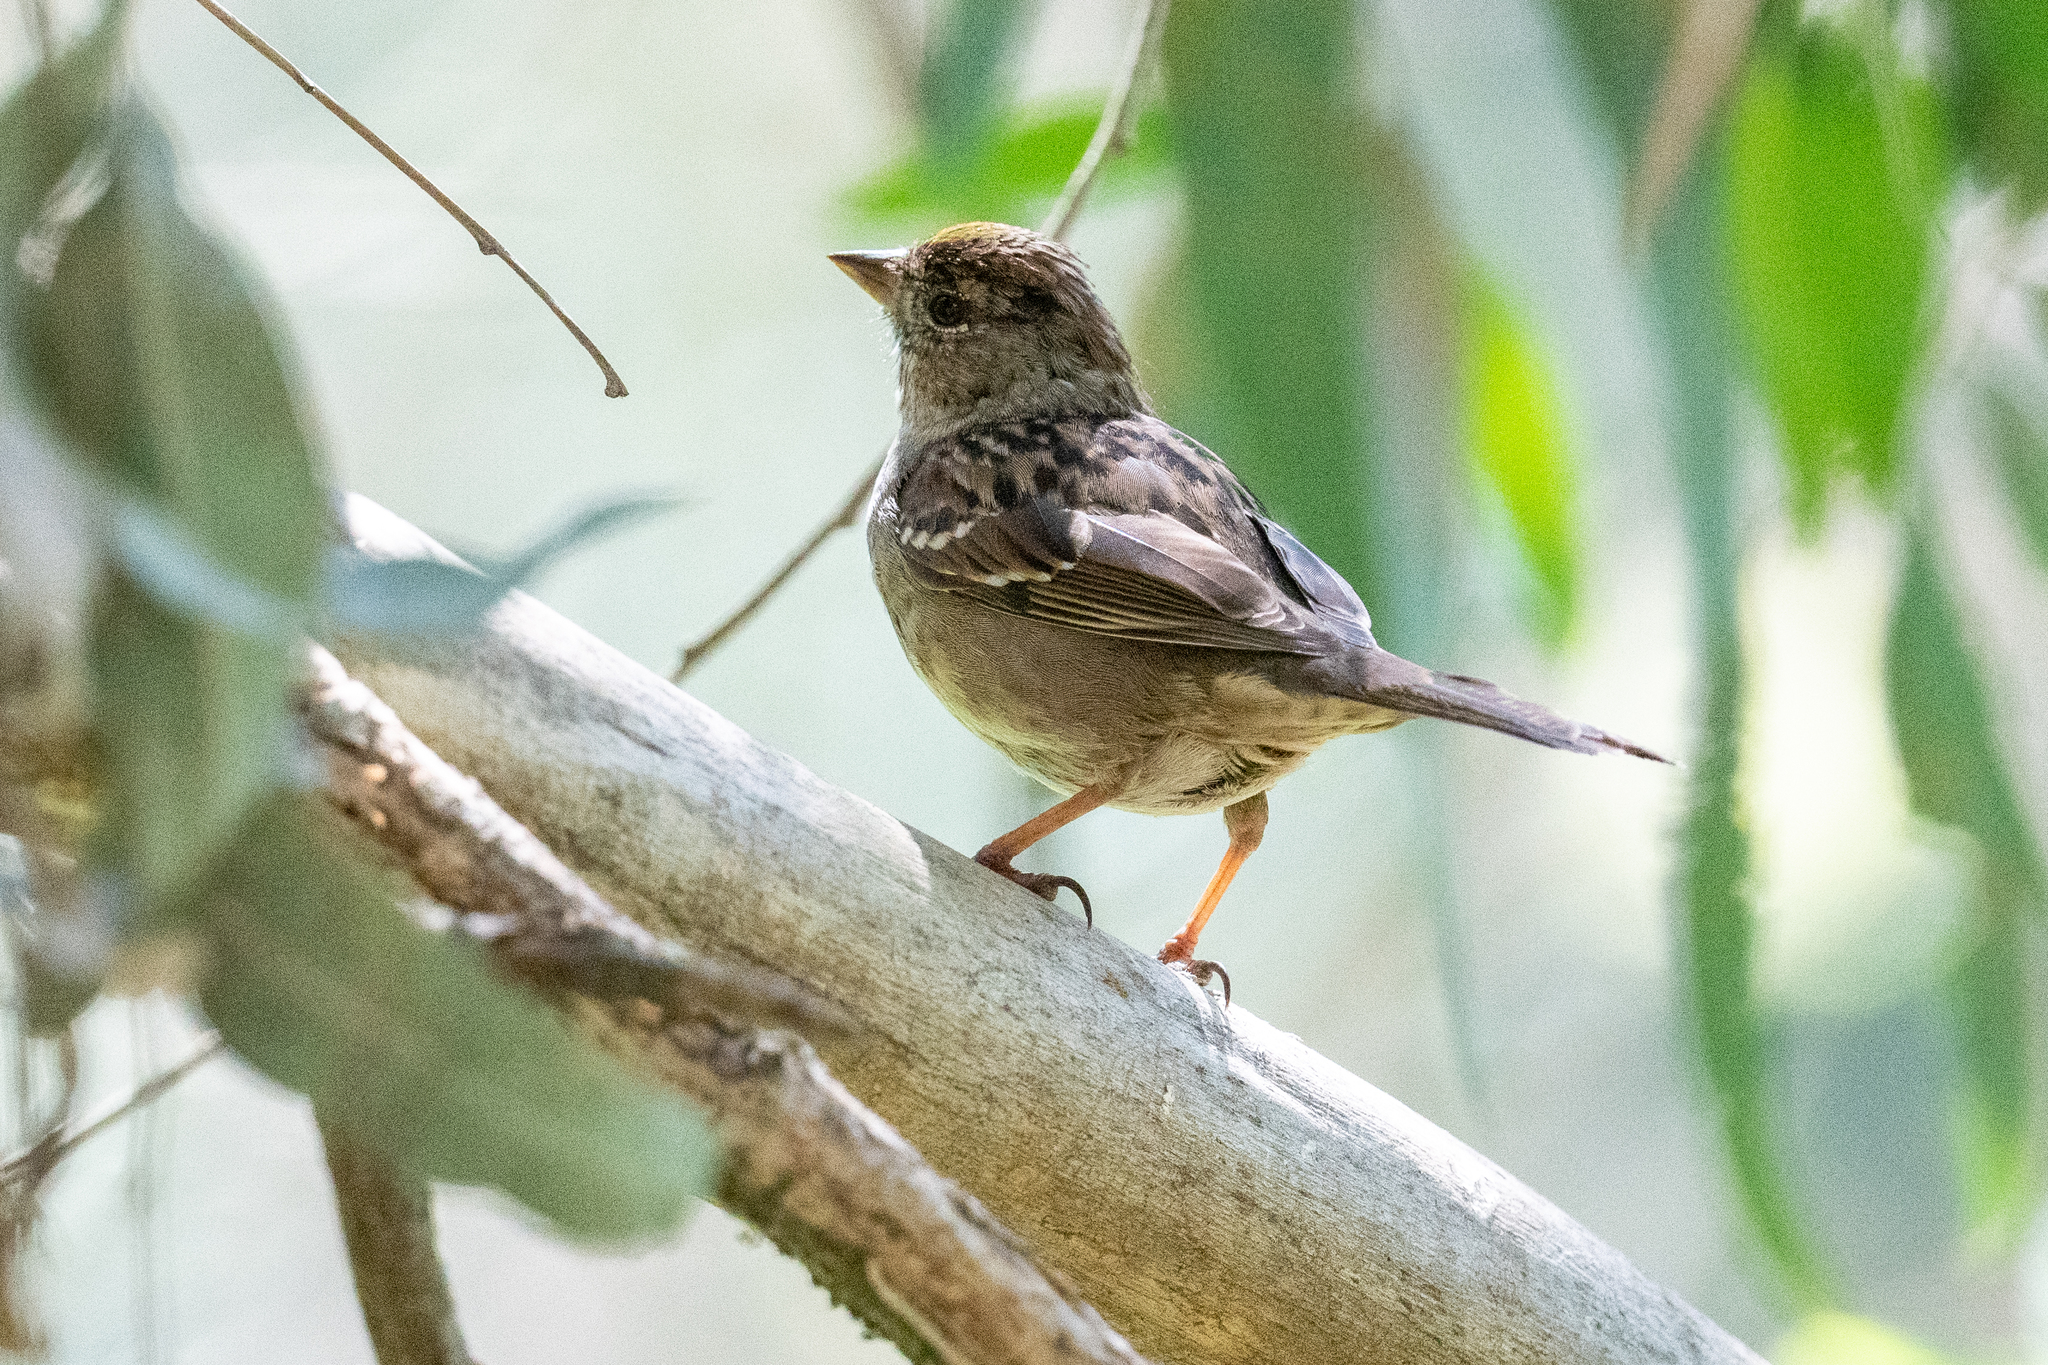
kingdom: Animalia
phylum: Chordata
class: Aves
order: Passeriformes
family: Passerellidae
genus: Zonotrichia
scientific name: Zonotrichia atricapilla
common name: Golden-crowned sparrow
